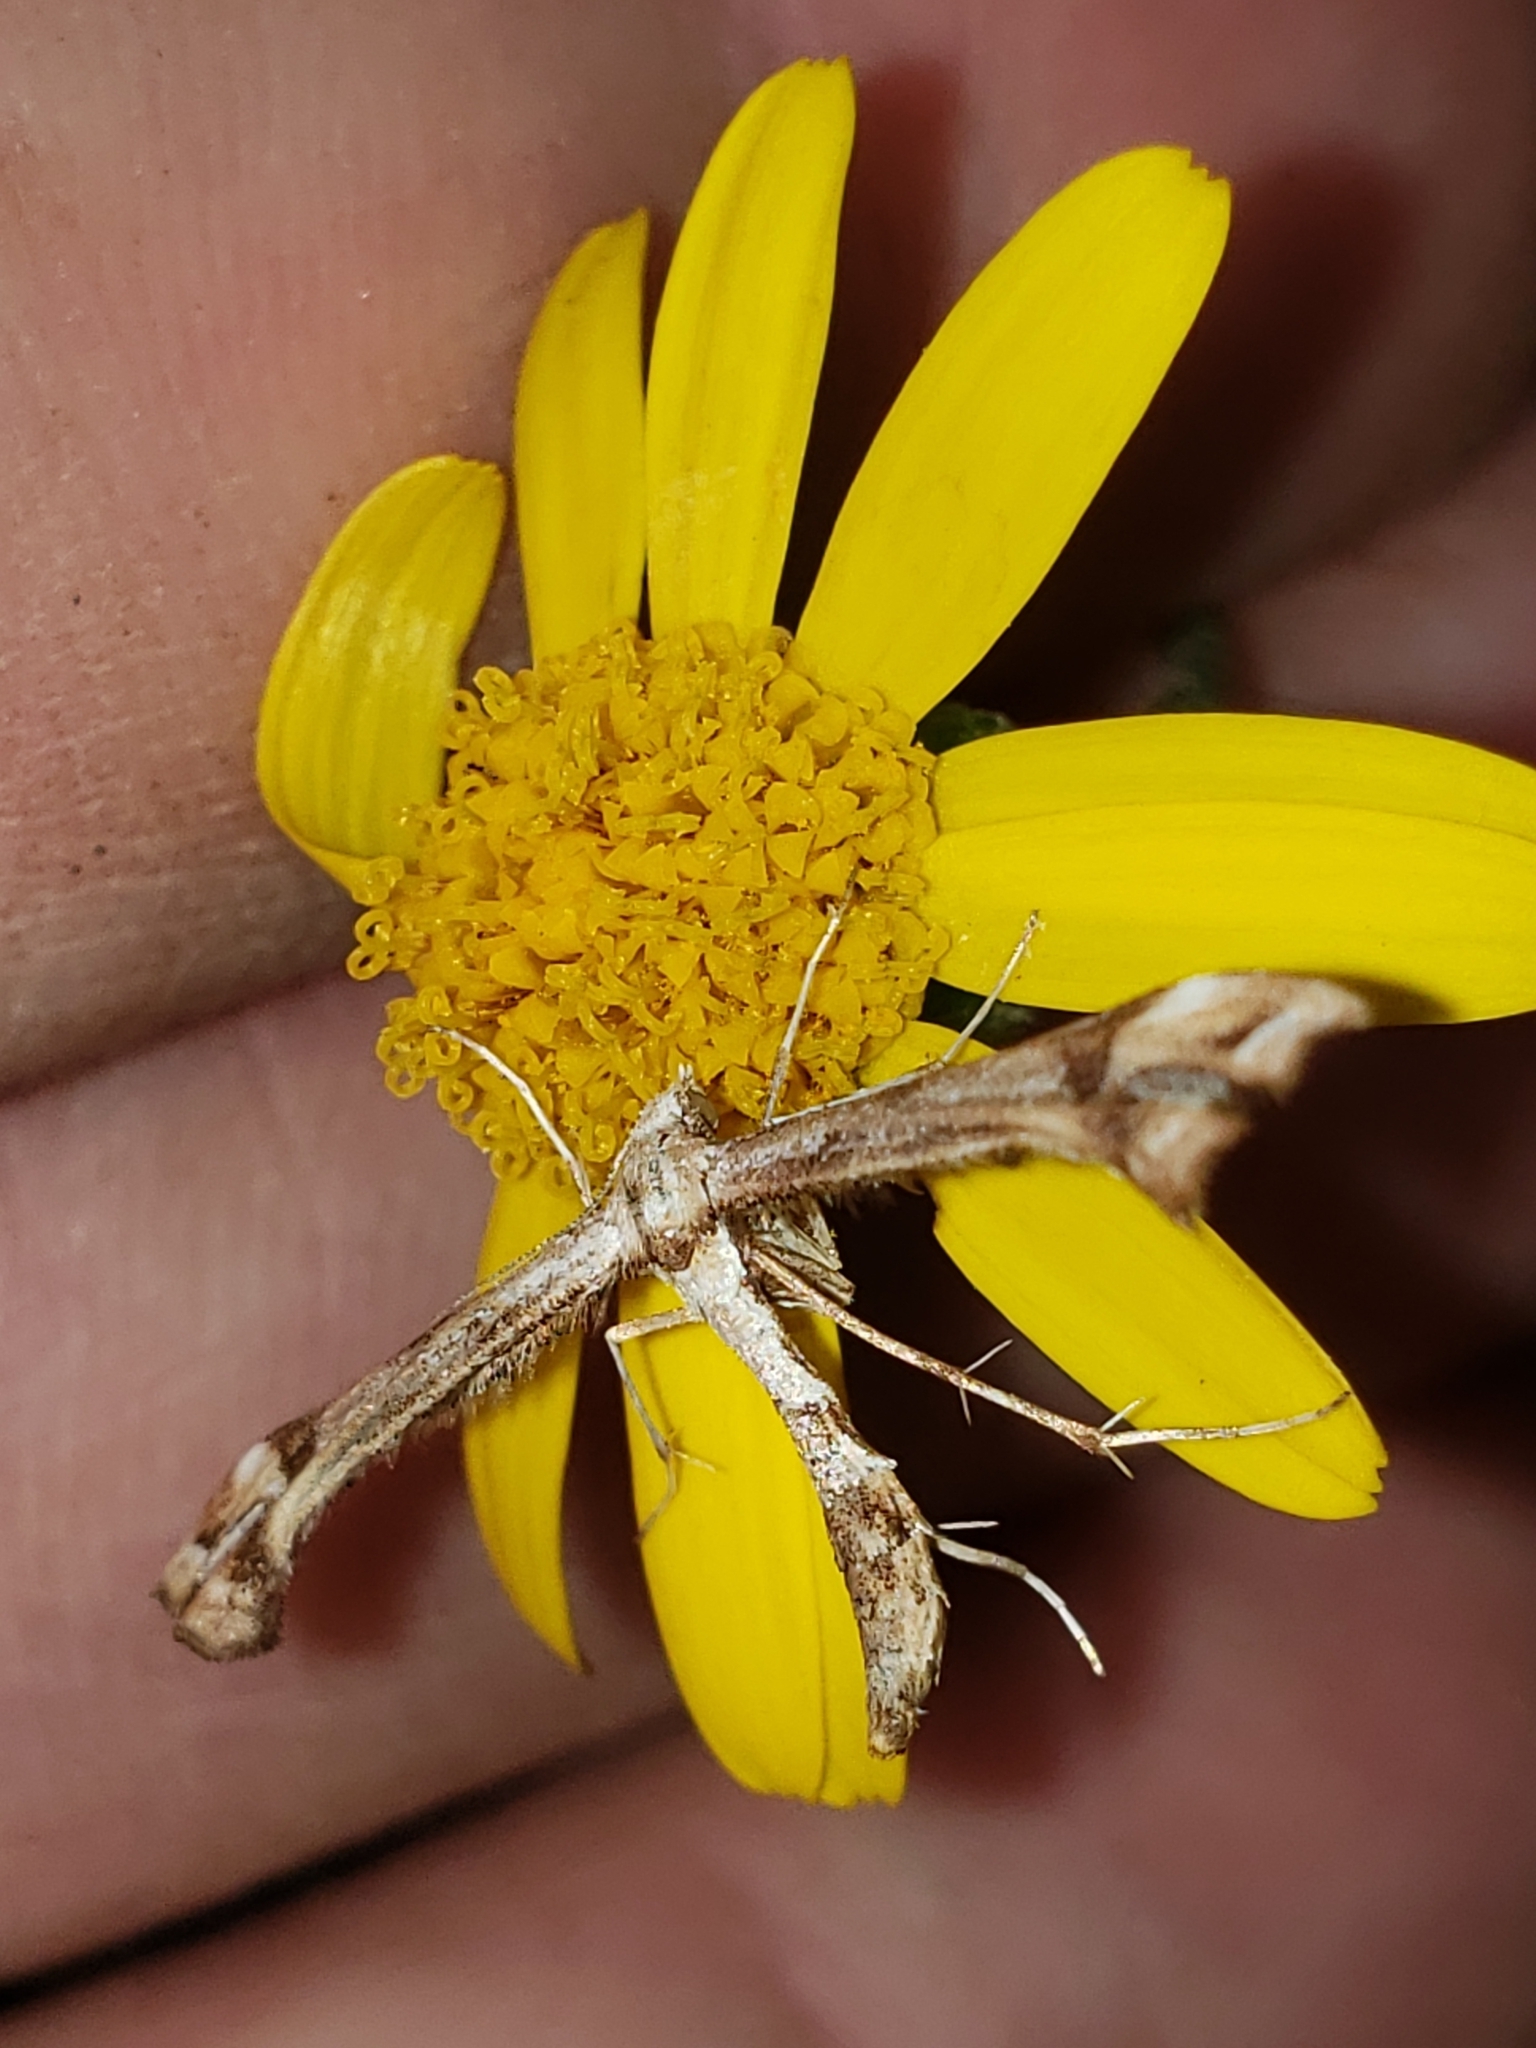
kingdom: Animalia
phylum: Arthropoda
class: Insecta
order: Lepidoptera
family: Pterophoridae
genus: Platyptilia
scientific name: Platyptilia carduidactylus
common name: Artichoke plume moth
